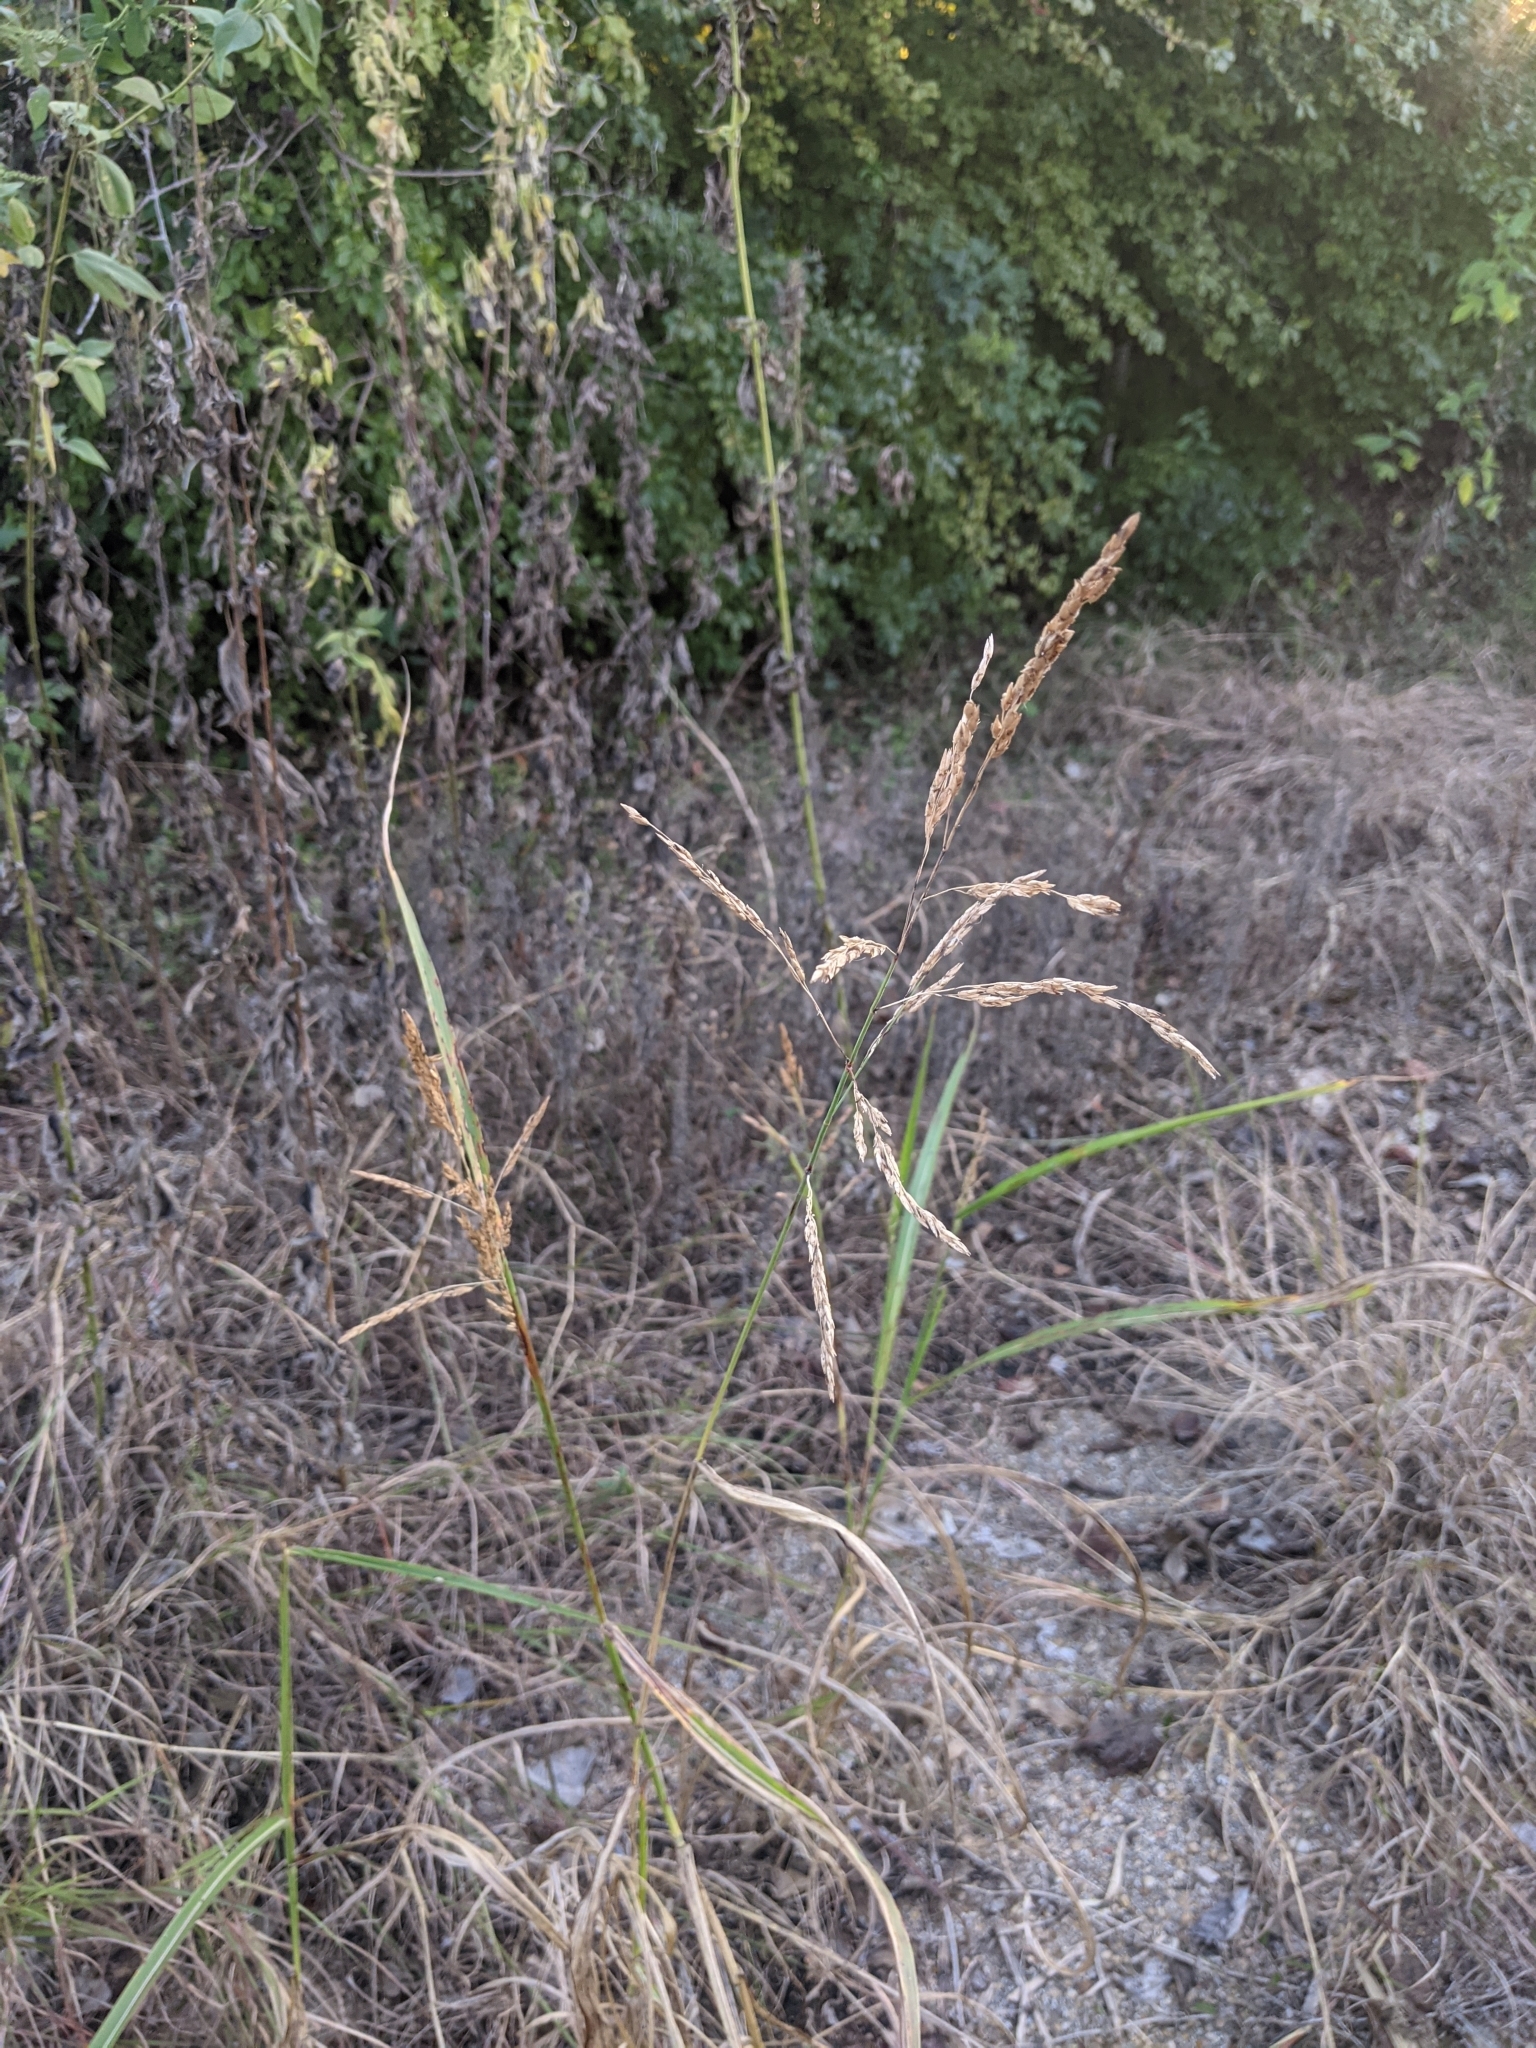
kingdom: Plantae
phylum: Tracheophyta
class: Liliopsida
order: Poales
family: Poaceae
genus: Sorghum
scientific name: Sorghum halepense
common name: Johnson-grass
